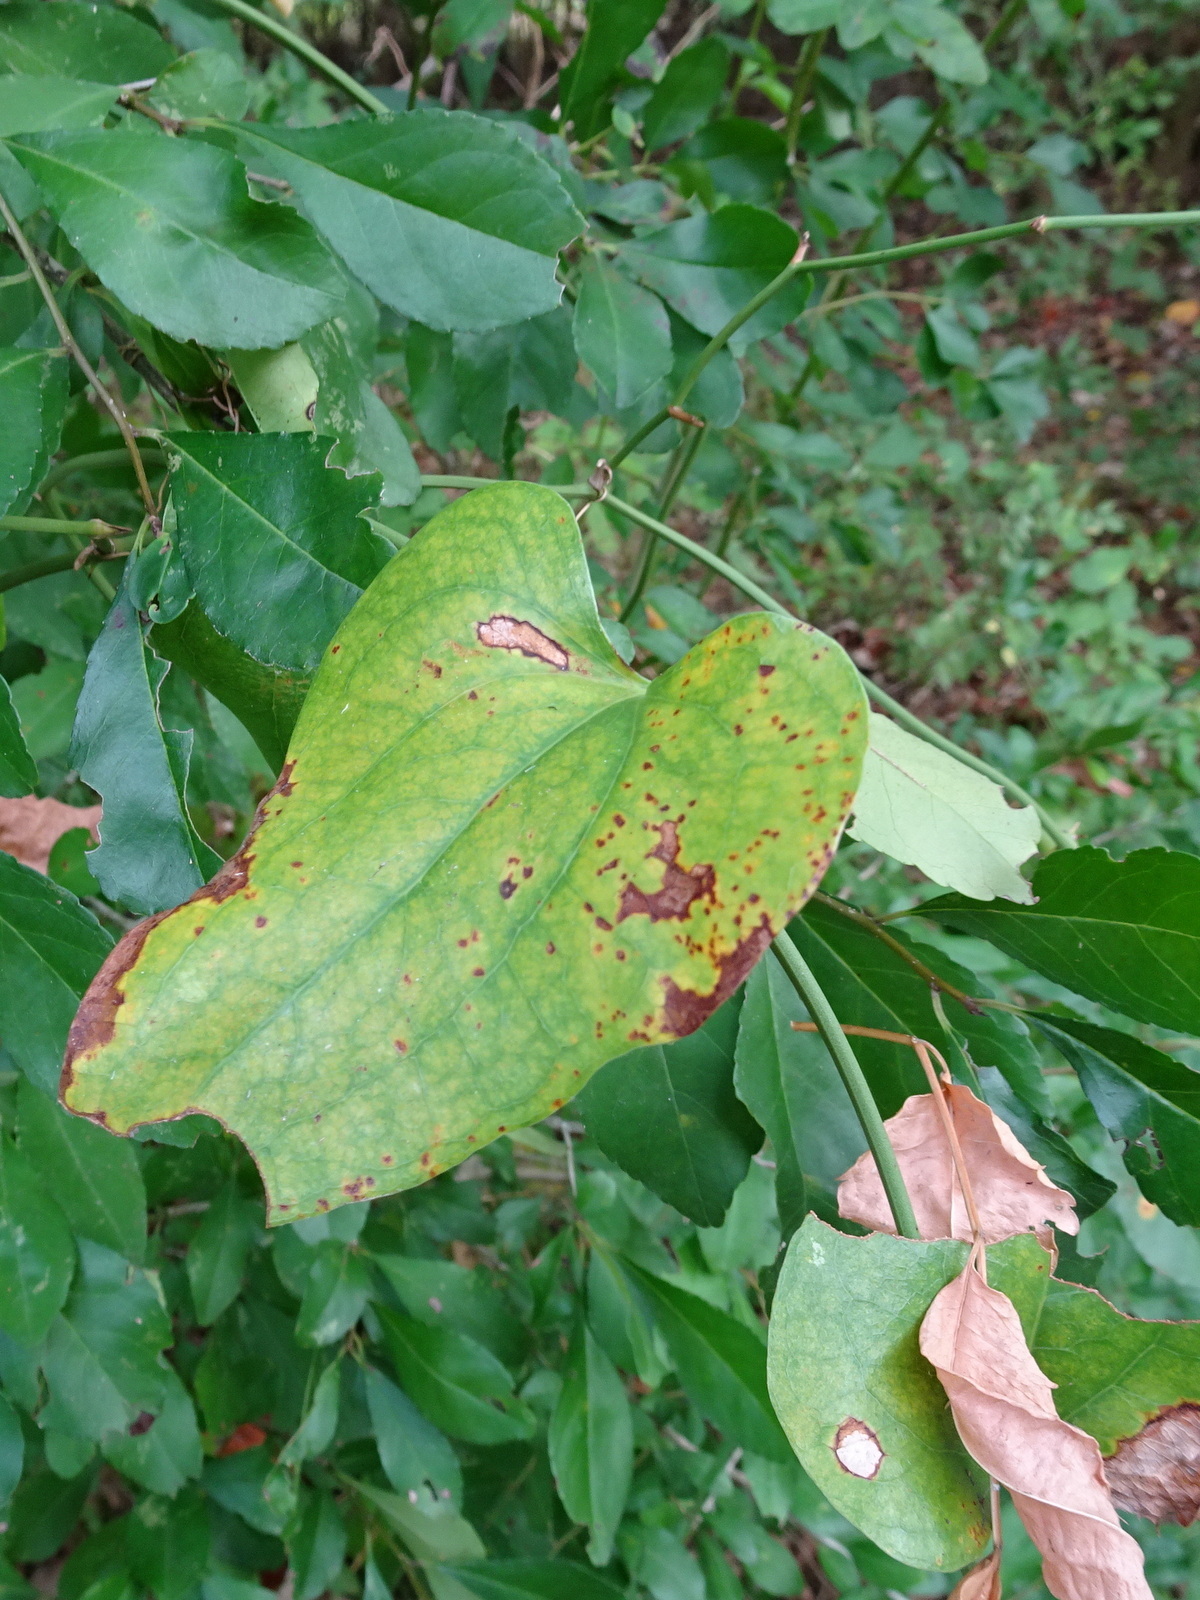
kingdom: Plantae
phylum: Tracheophyta
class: Liliopsida
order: Liliales
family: Smilacaceae
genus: Smilax
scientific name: Smilax bona-nox
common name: Catbrier
